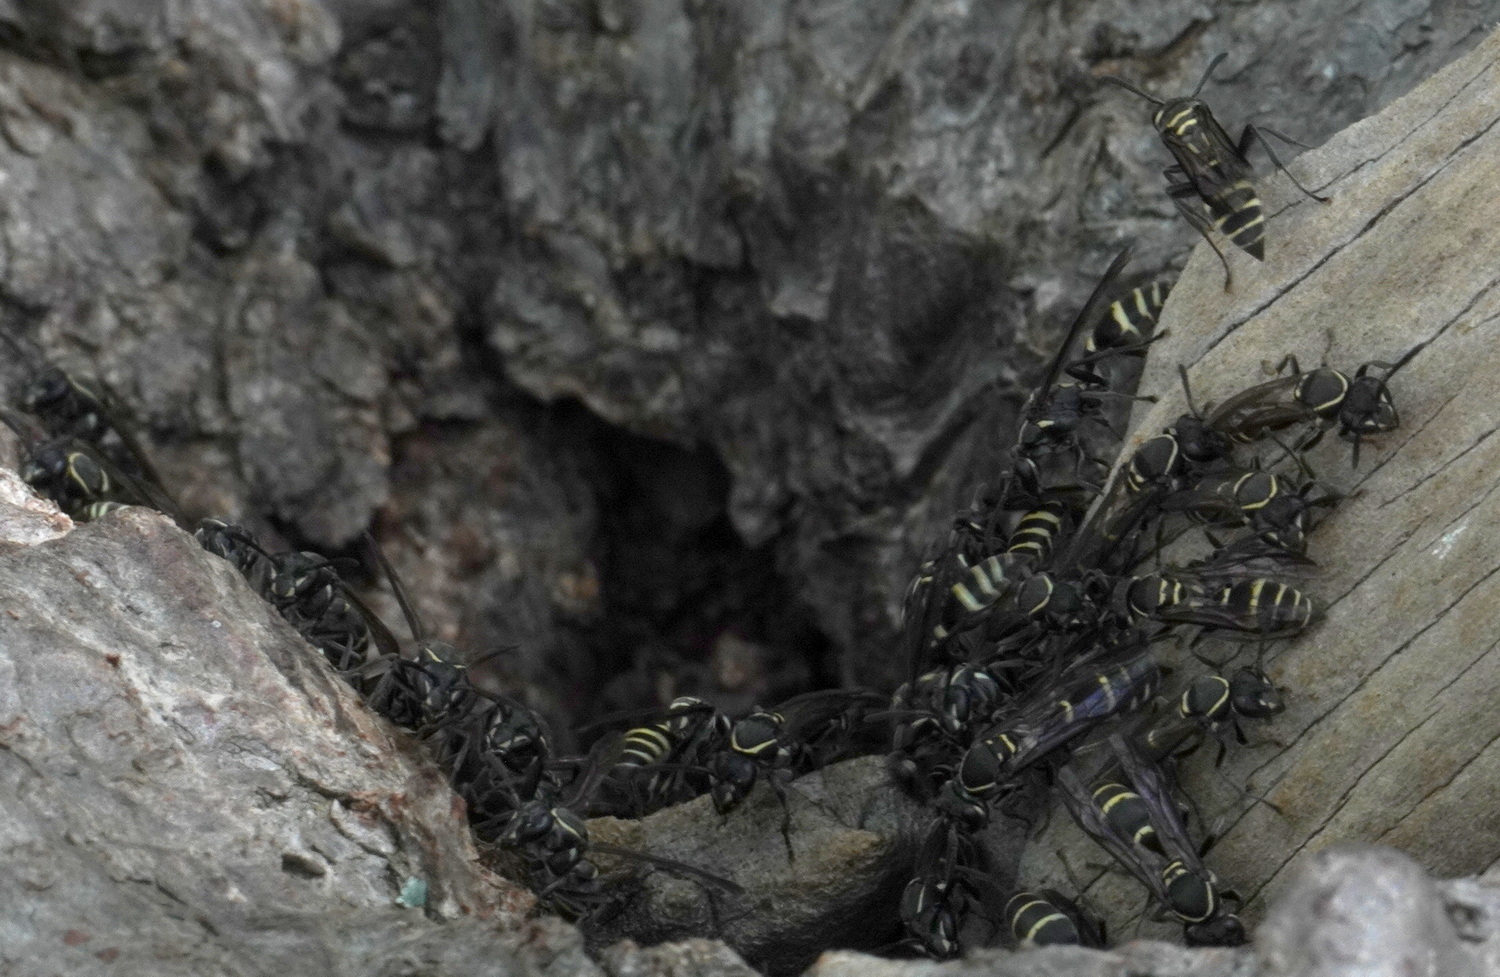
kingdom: Animalia
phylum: Arthropoda
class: Insecta
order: Hymenoptera
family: Eumenidae
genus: Polybia
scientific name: Polybia occidentalis
